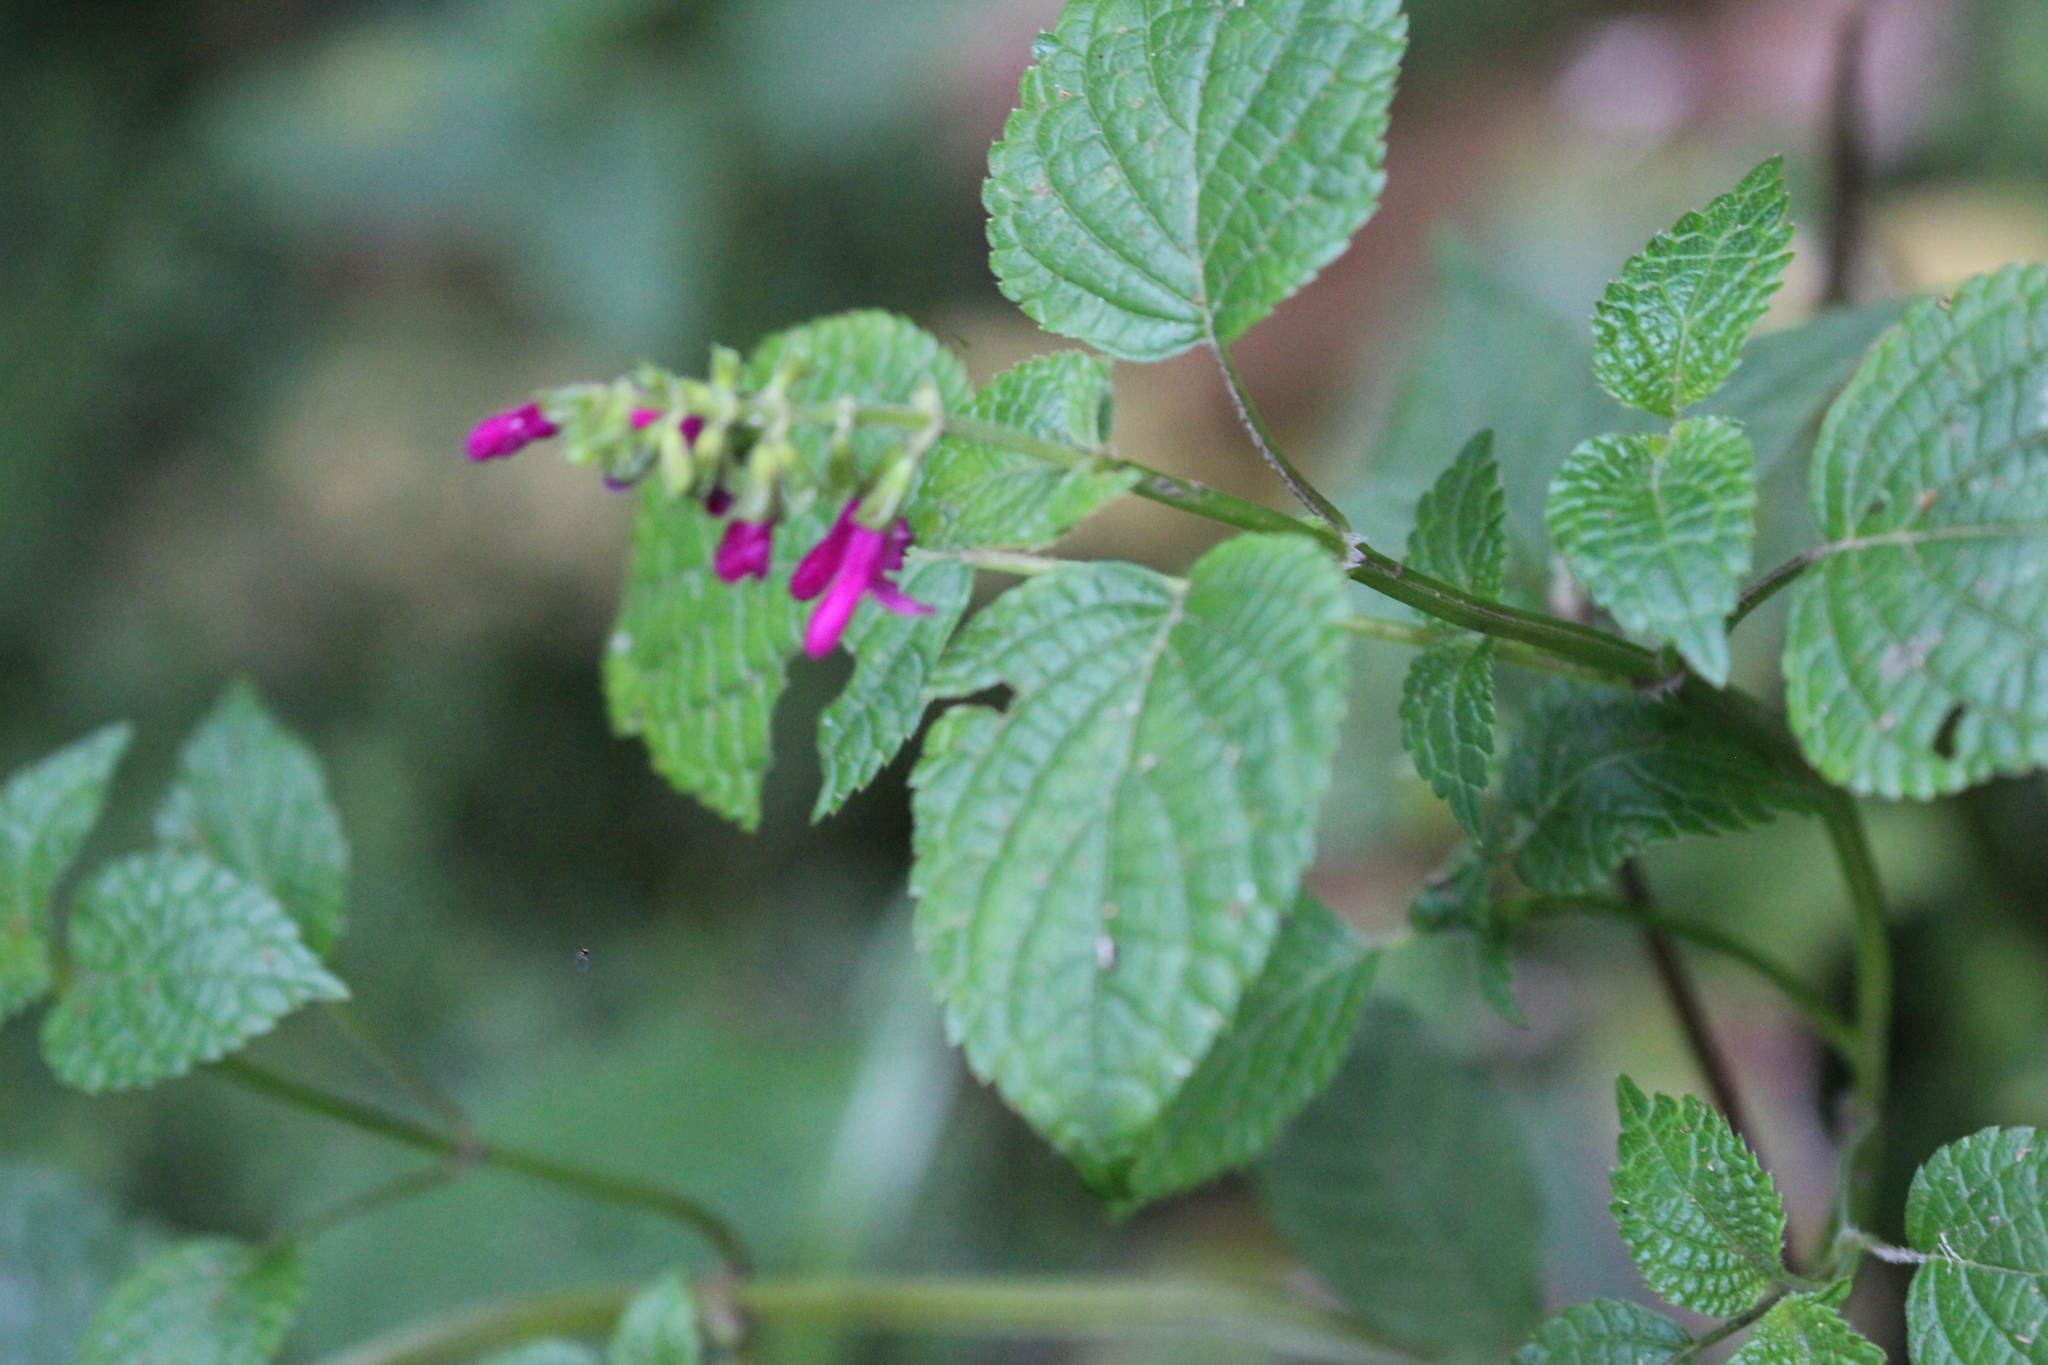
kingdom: Plantae
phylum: Tracheophyta
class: Magnoliopsida
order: Lamiales
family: Lamiaceae
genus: Salvia
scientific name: Salvia tortuosa
